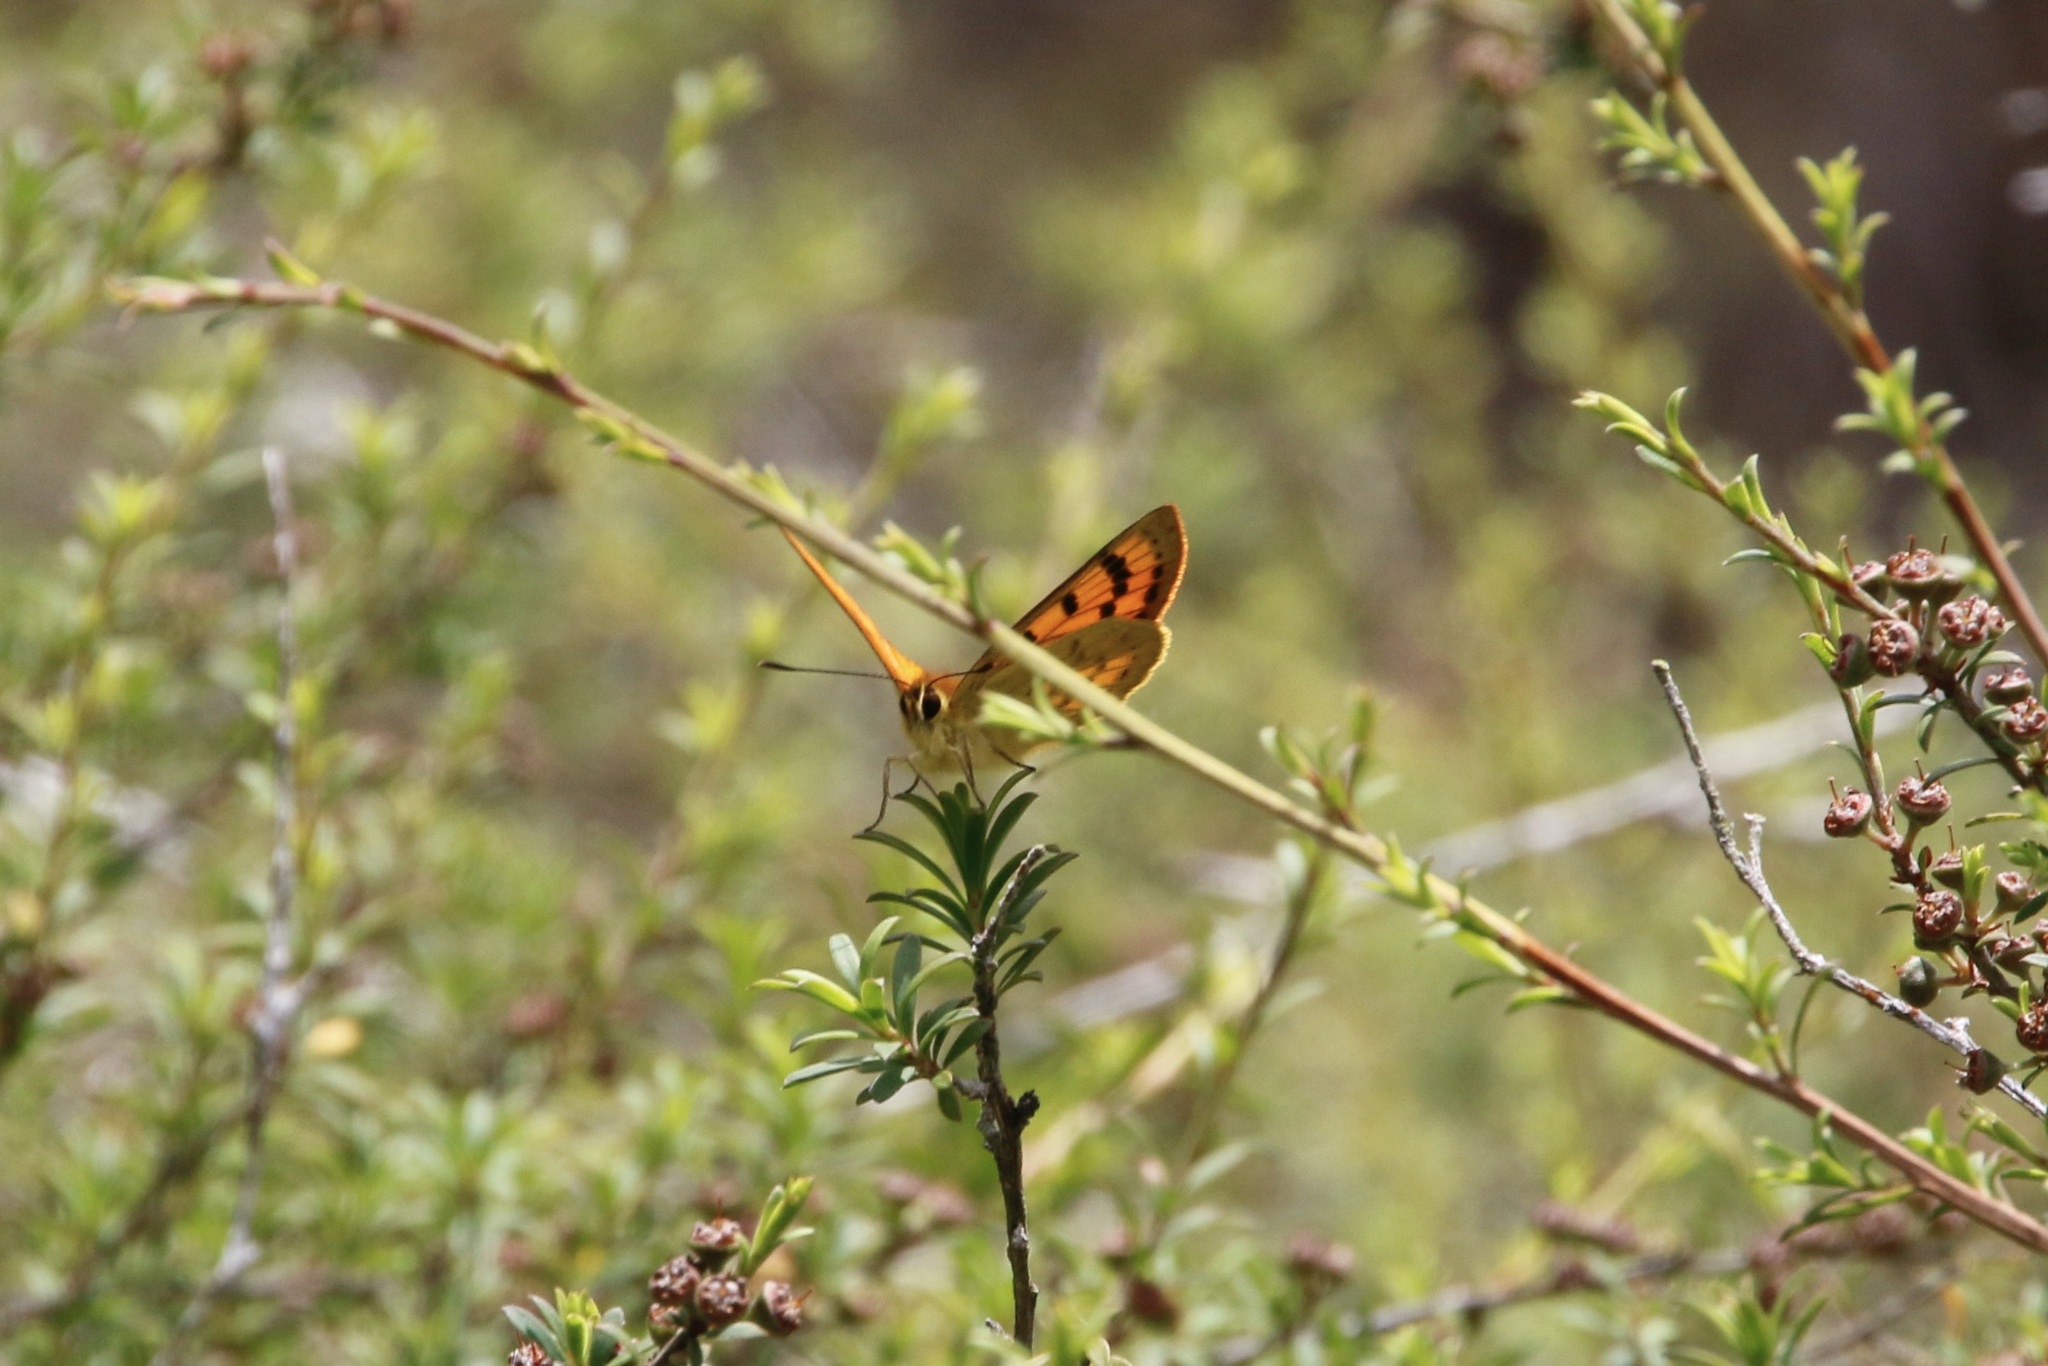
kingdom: Animalia
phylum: Arthropoda
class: Insecta
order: Lepidoptera
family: Lycaenidae
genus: Lycaena
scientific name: Lycaena salustius
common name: North island coastal copper
